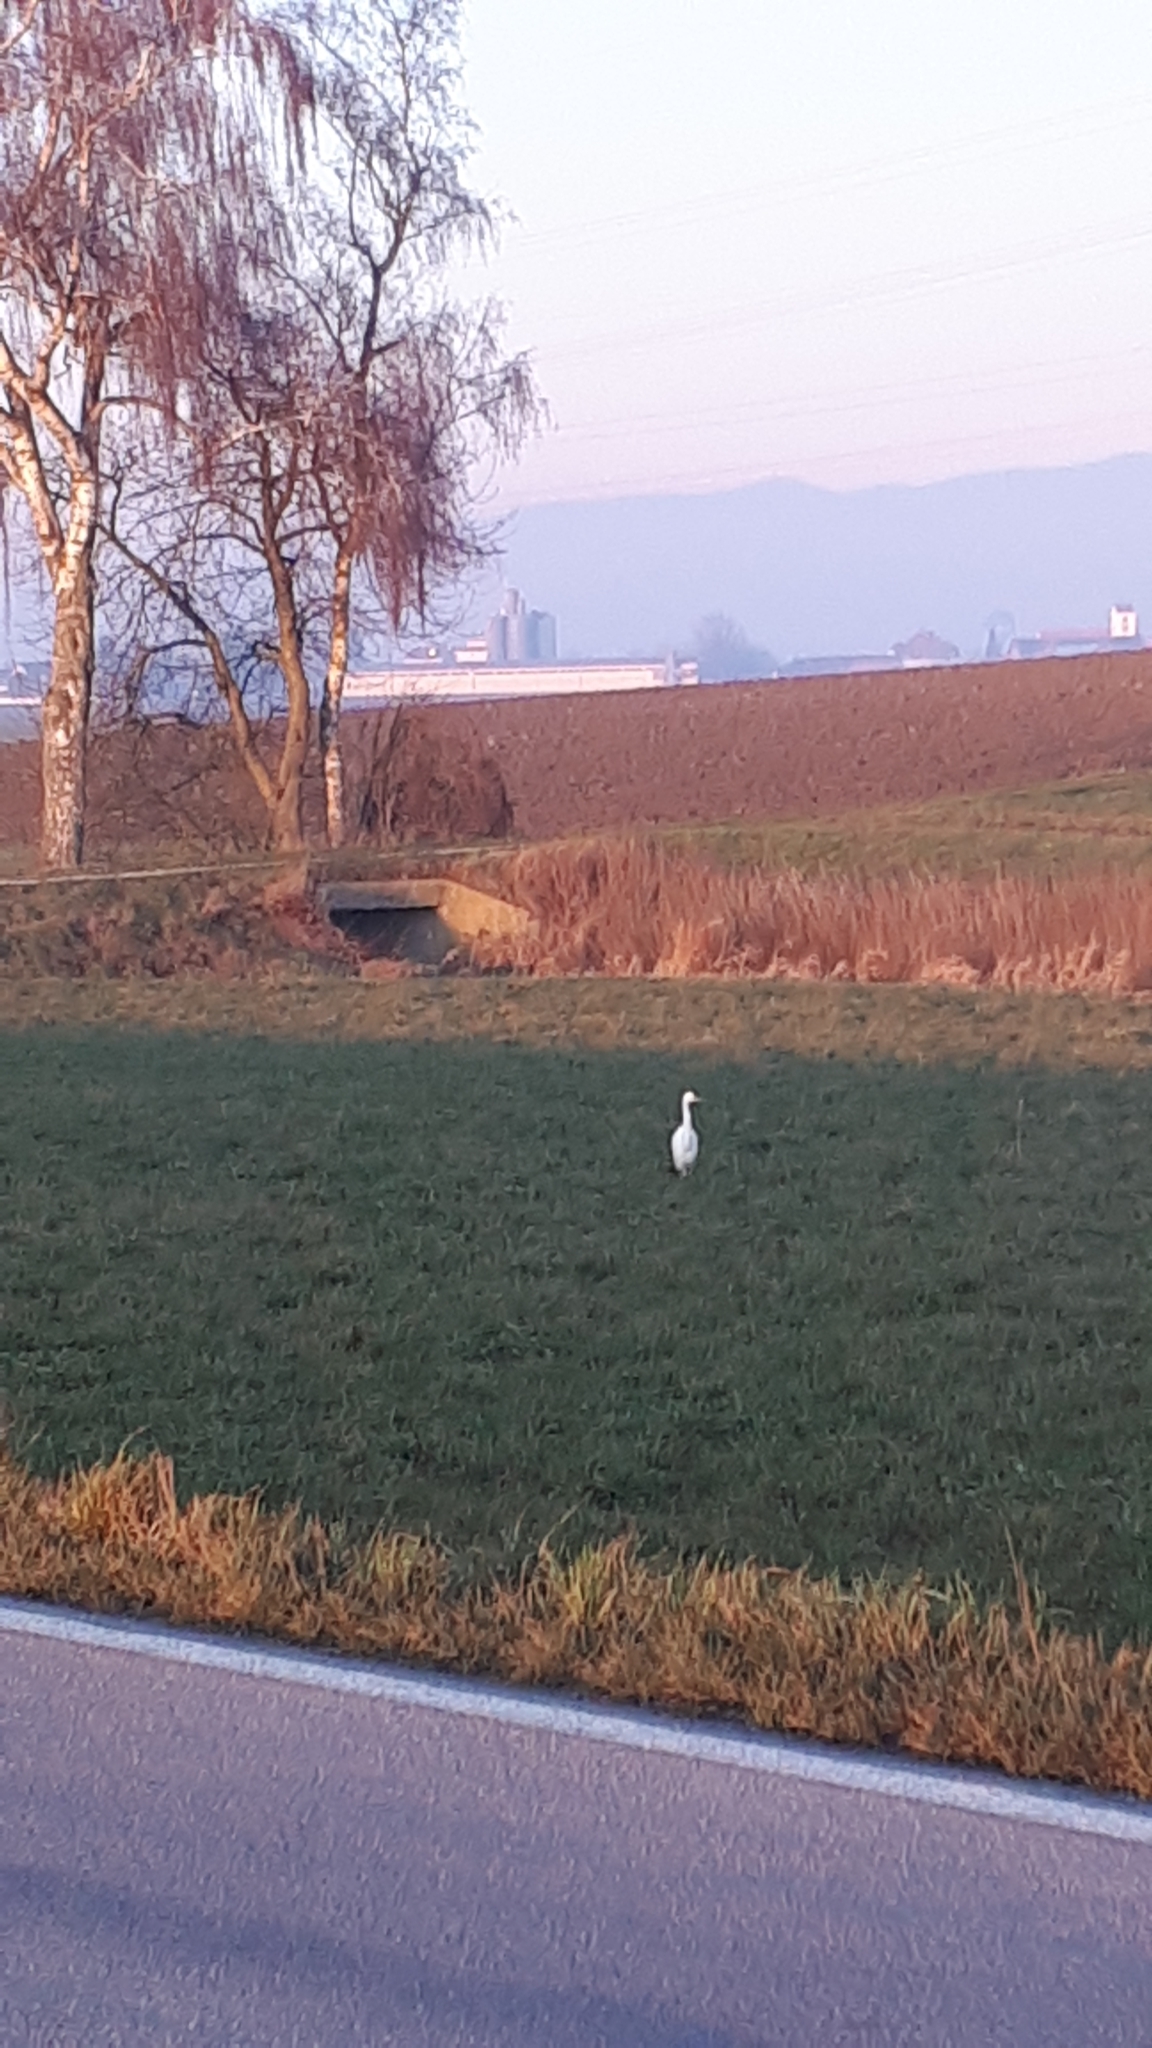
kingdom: Animalia
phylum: Chordata
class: Aves
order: Pelecaniformes
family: Ardeidae
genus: Ardea
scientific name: Ardea alba
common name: Great egret
